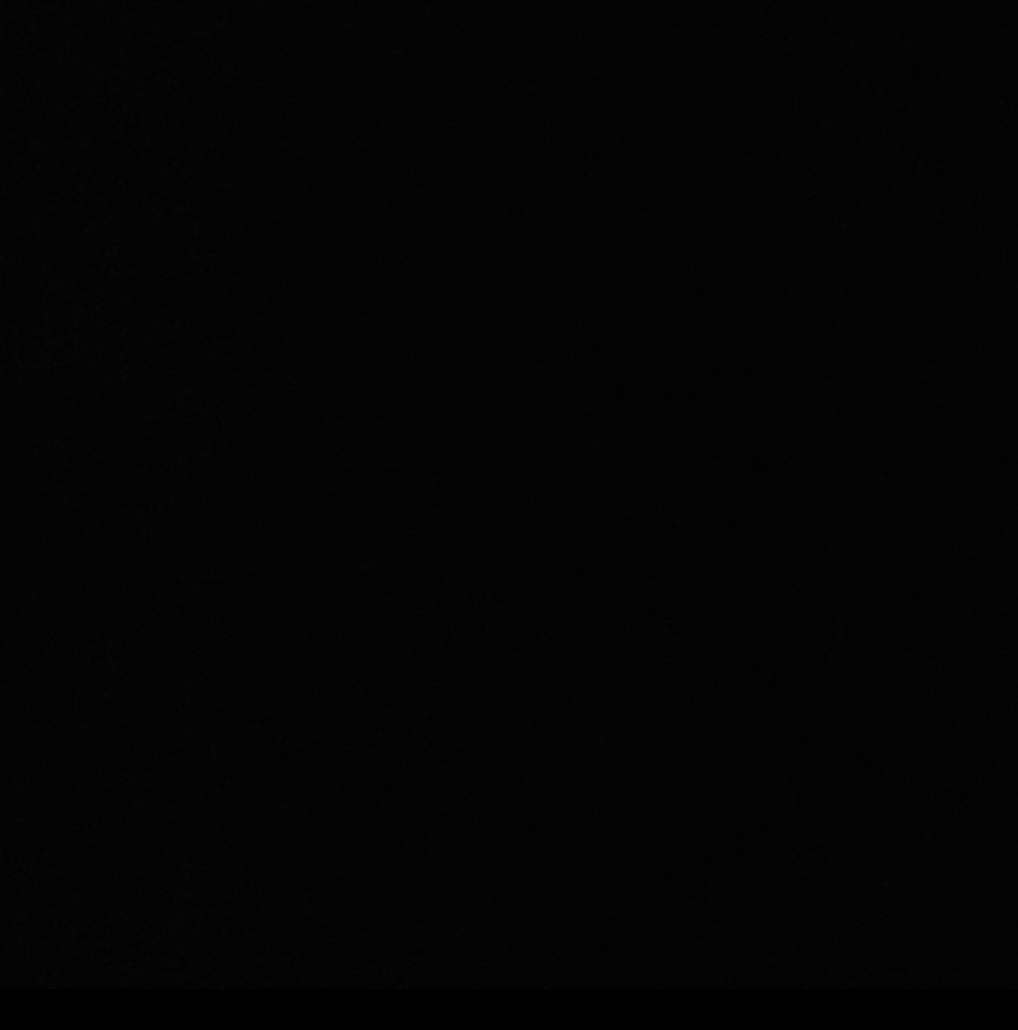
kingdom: Animalia
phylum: Chordata
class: Aves
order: Passeriformes
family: Muscicapidae
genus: Luscinia
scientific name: Luscinia megarhynchos
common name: Common nightingale
